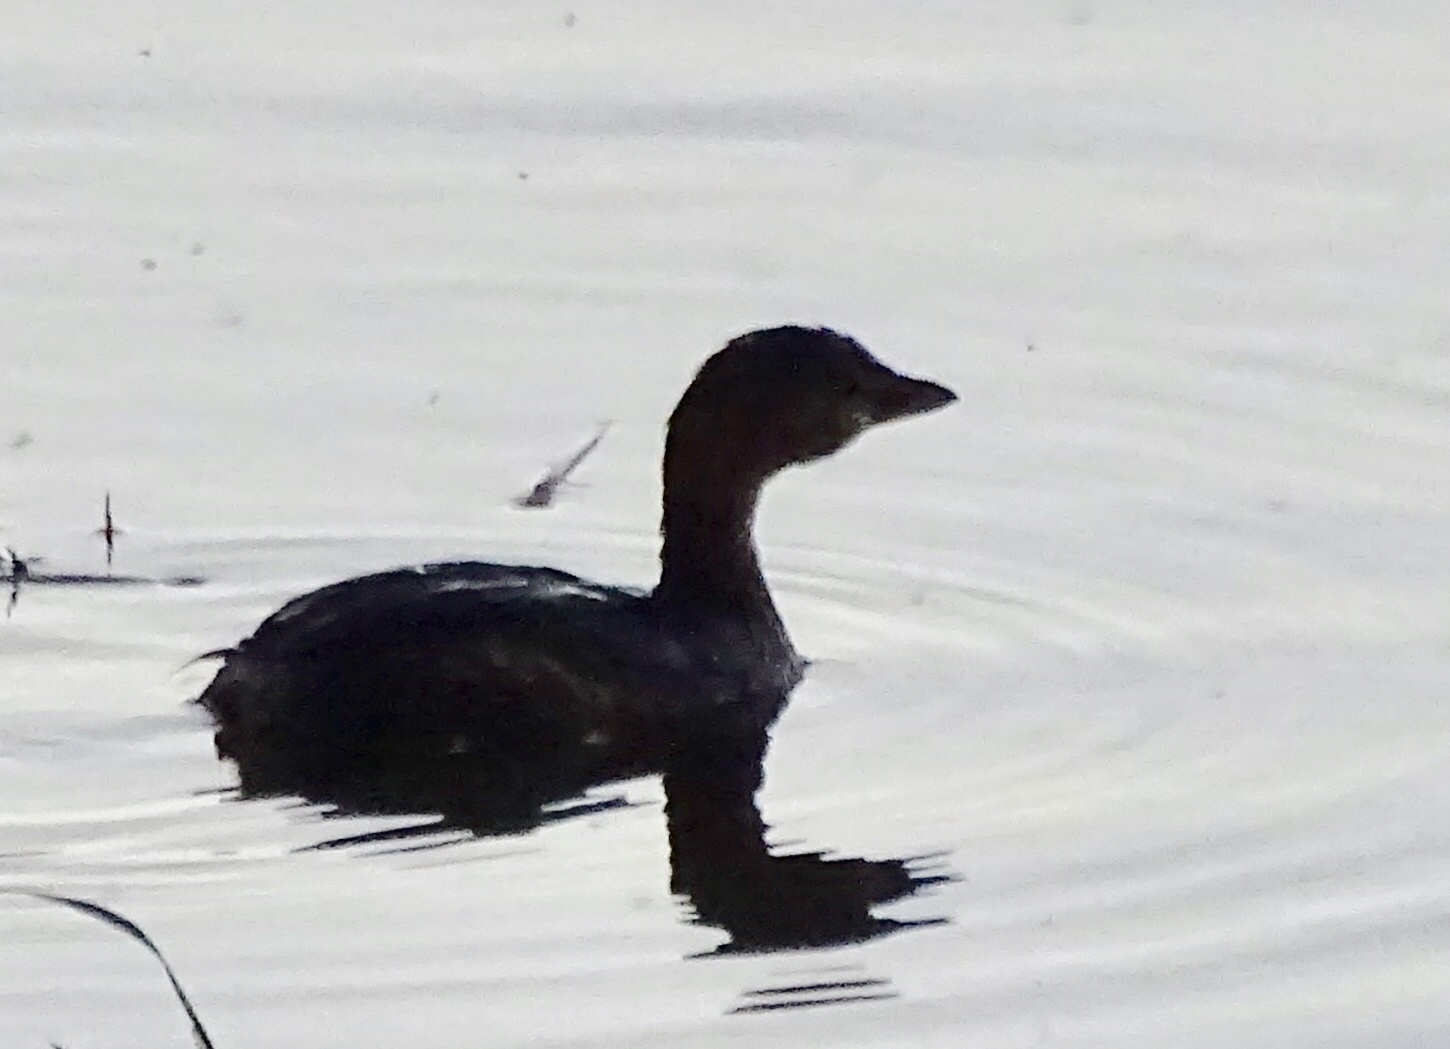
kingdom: Animalia
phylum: Chordata
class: Aves
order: Podicipediformes
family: Podicipedidae
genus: Podilymbus
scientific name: Podilymbus podiceps
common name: Pied-billed grebe
